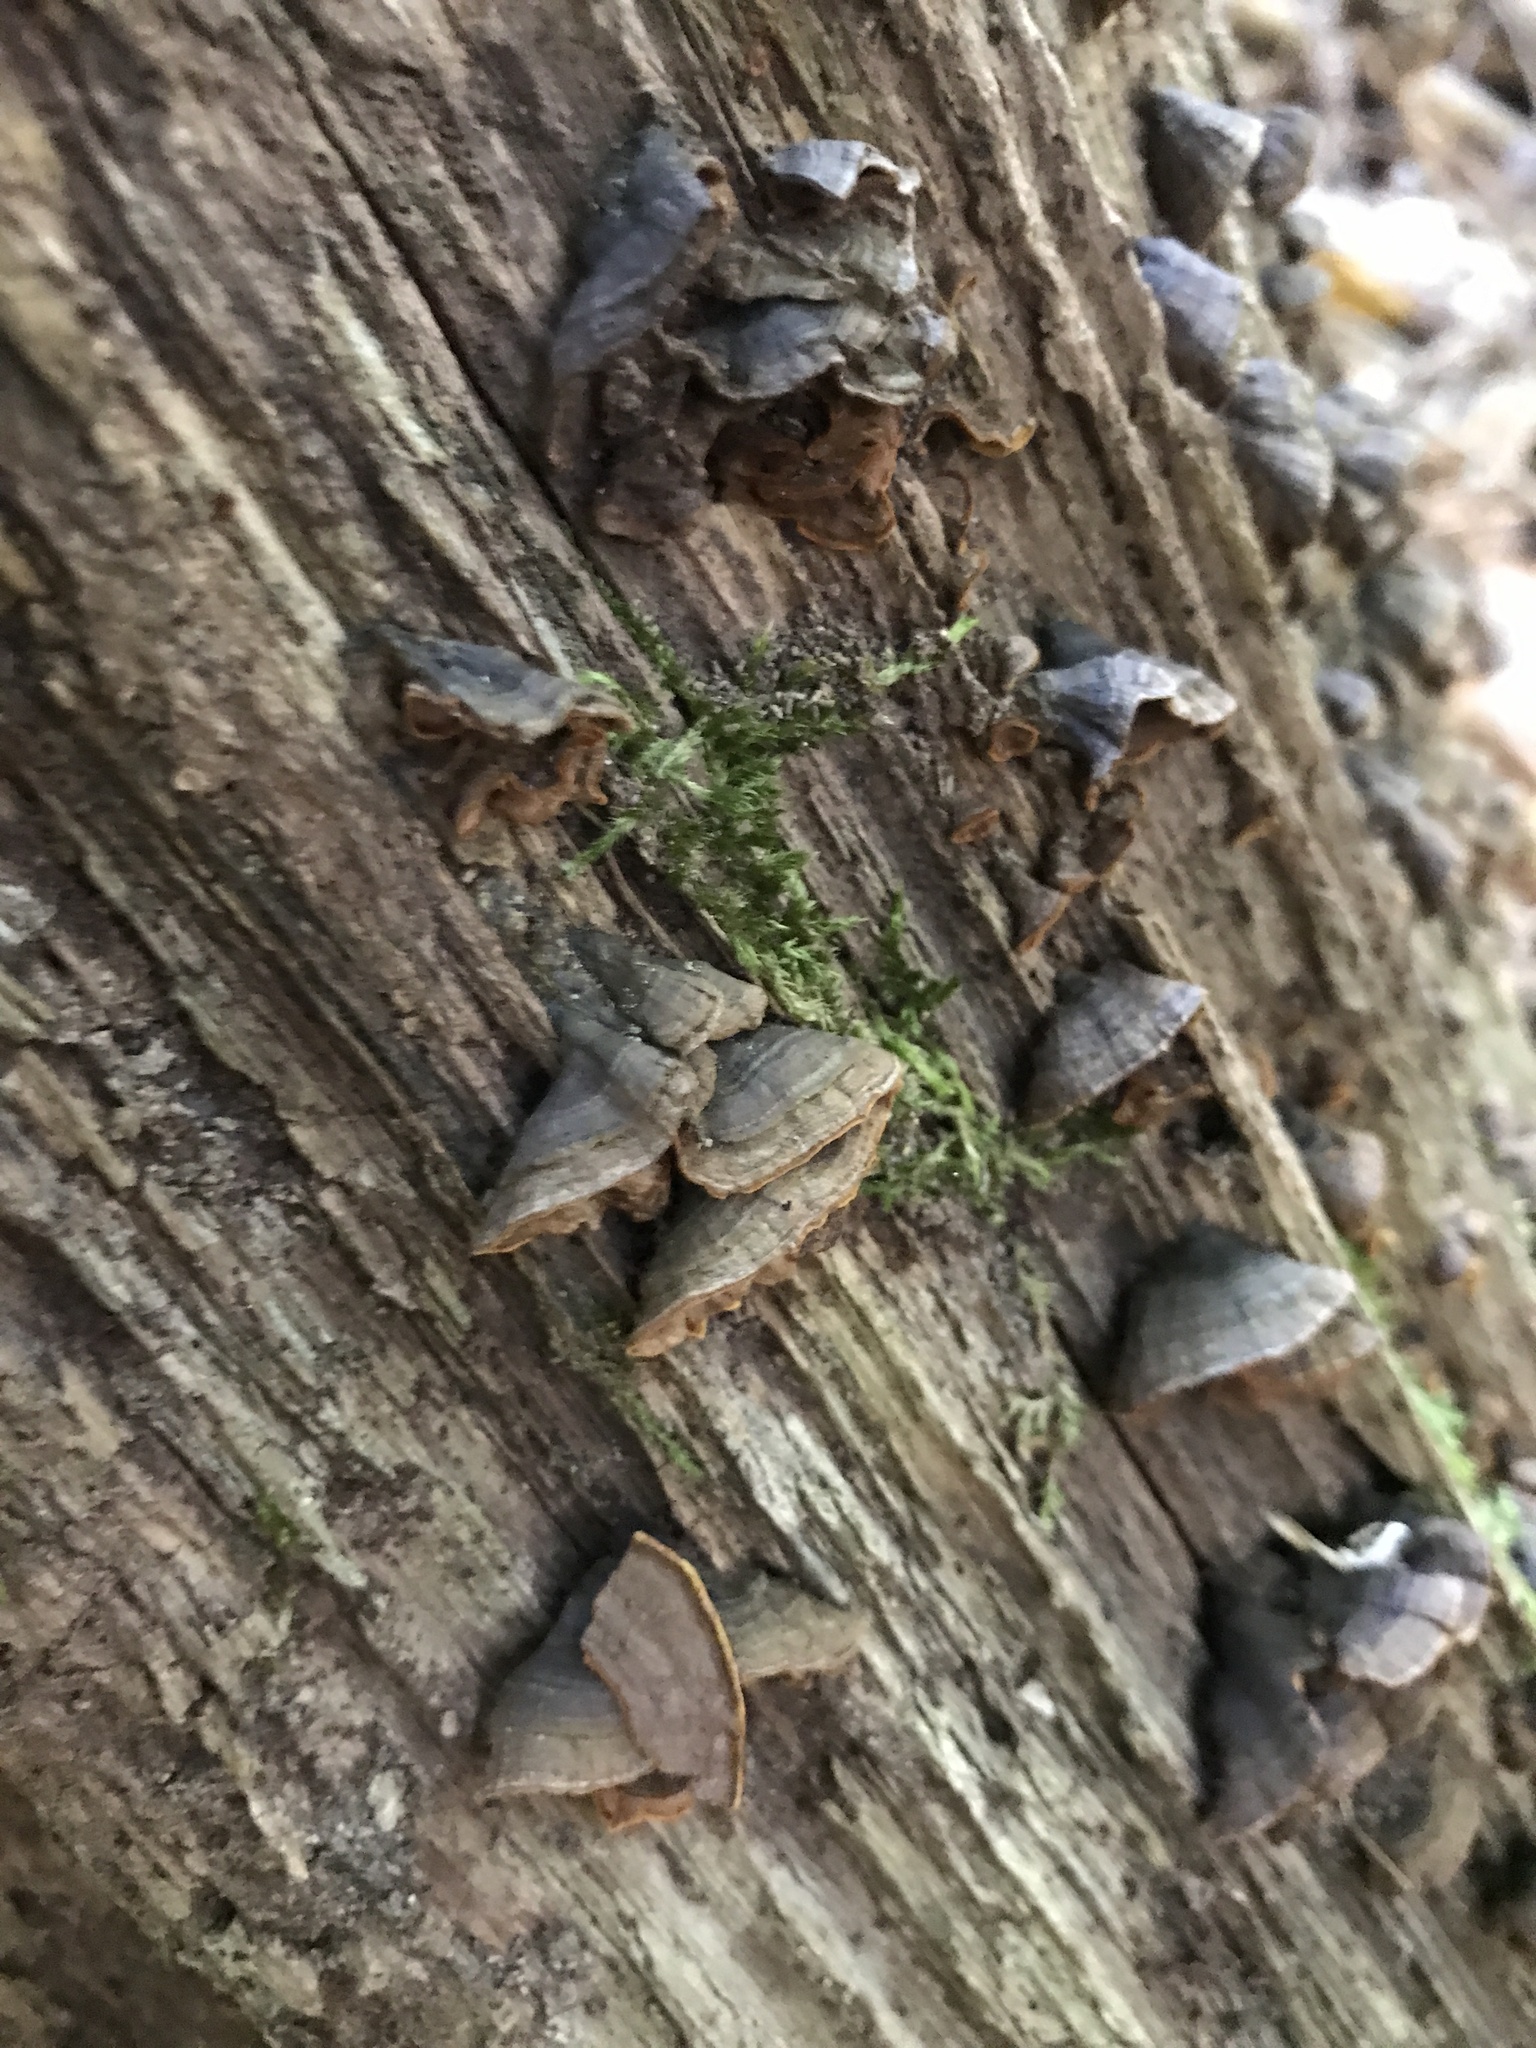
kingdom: Fungi
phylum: Basidiomycota
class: Agaricomycetes
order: Hymenochaetales
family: Hymenochaetaceae
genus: Hymenochaete
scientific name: Hymenochaete rubiginosa
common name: Oak curtain crust
